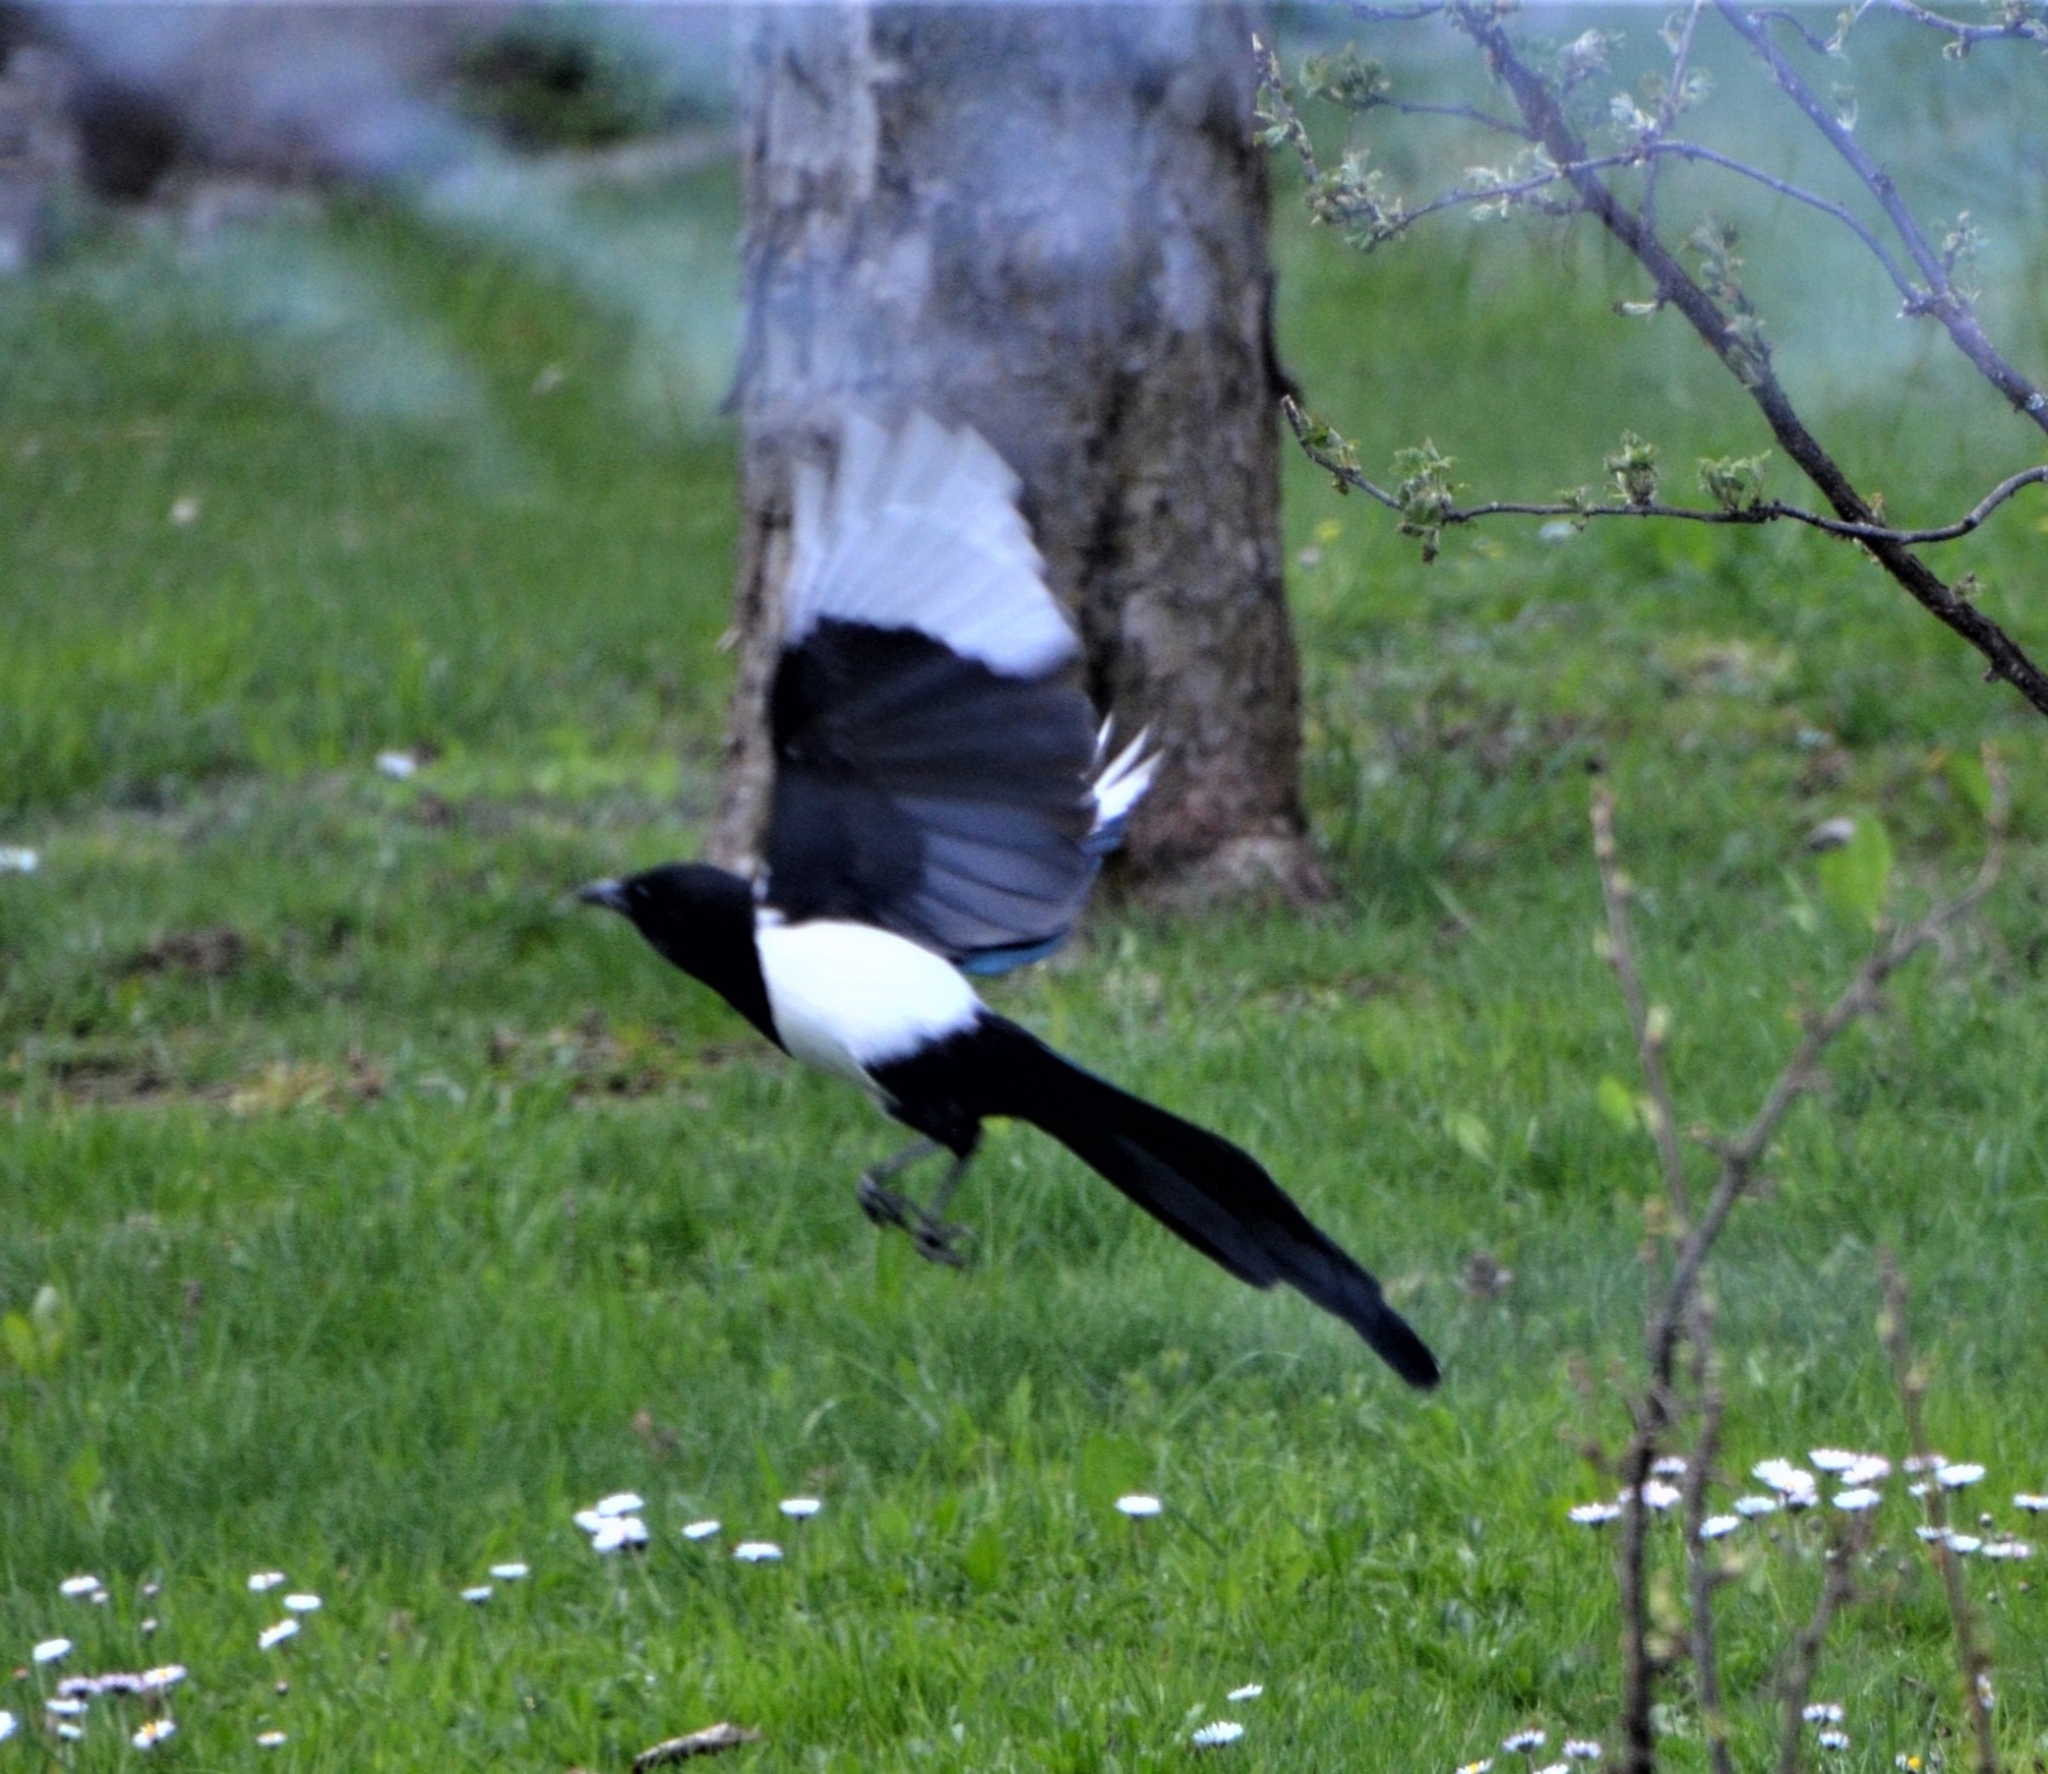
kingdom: Animalia
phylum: Chordata
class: Aves
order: Passeriformes
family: Corvidae
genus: Pica
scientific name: Pica pica
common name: Eurasian magpie
